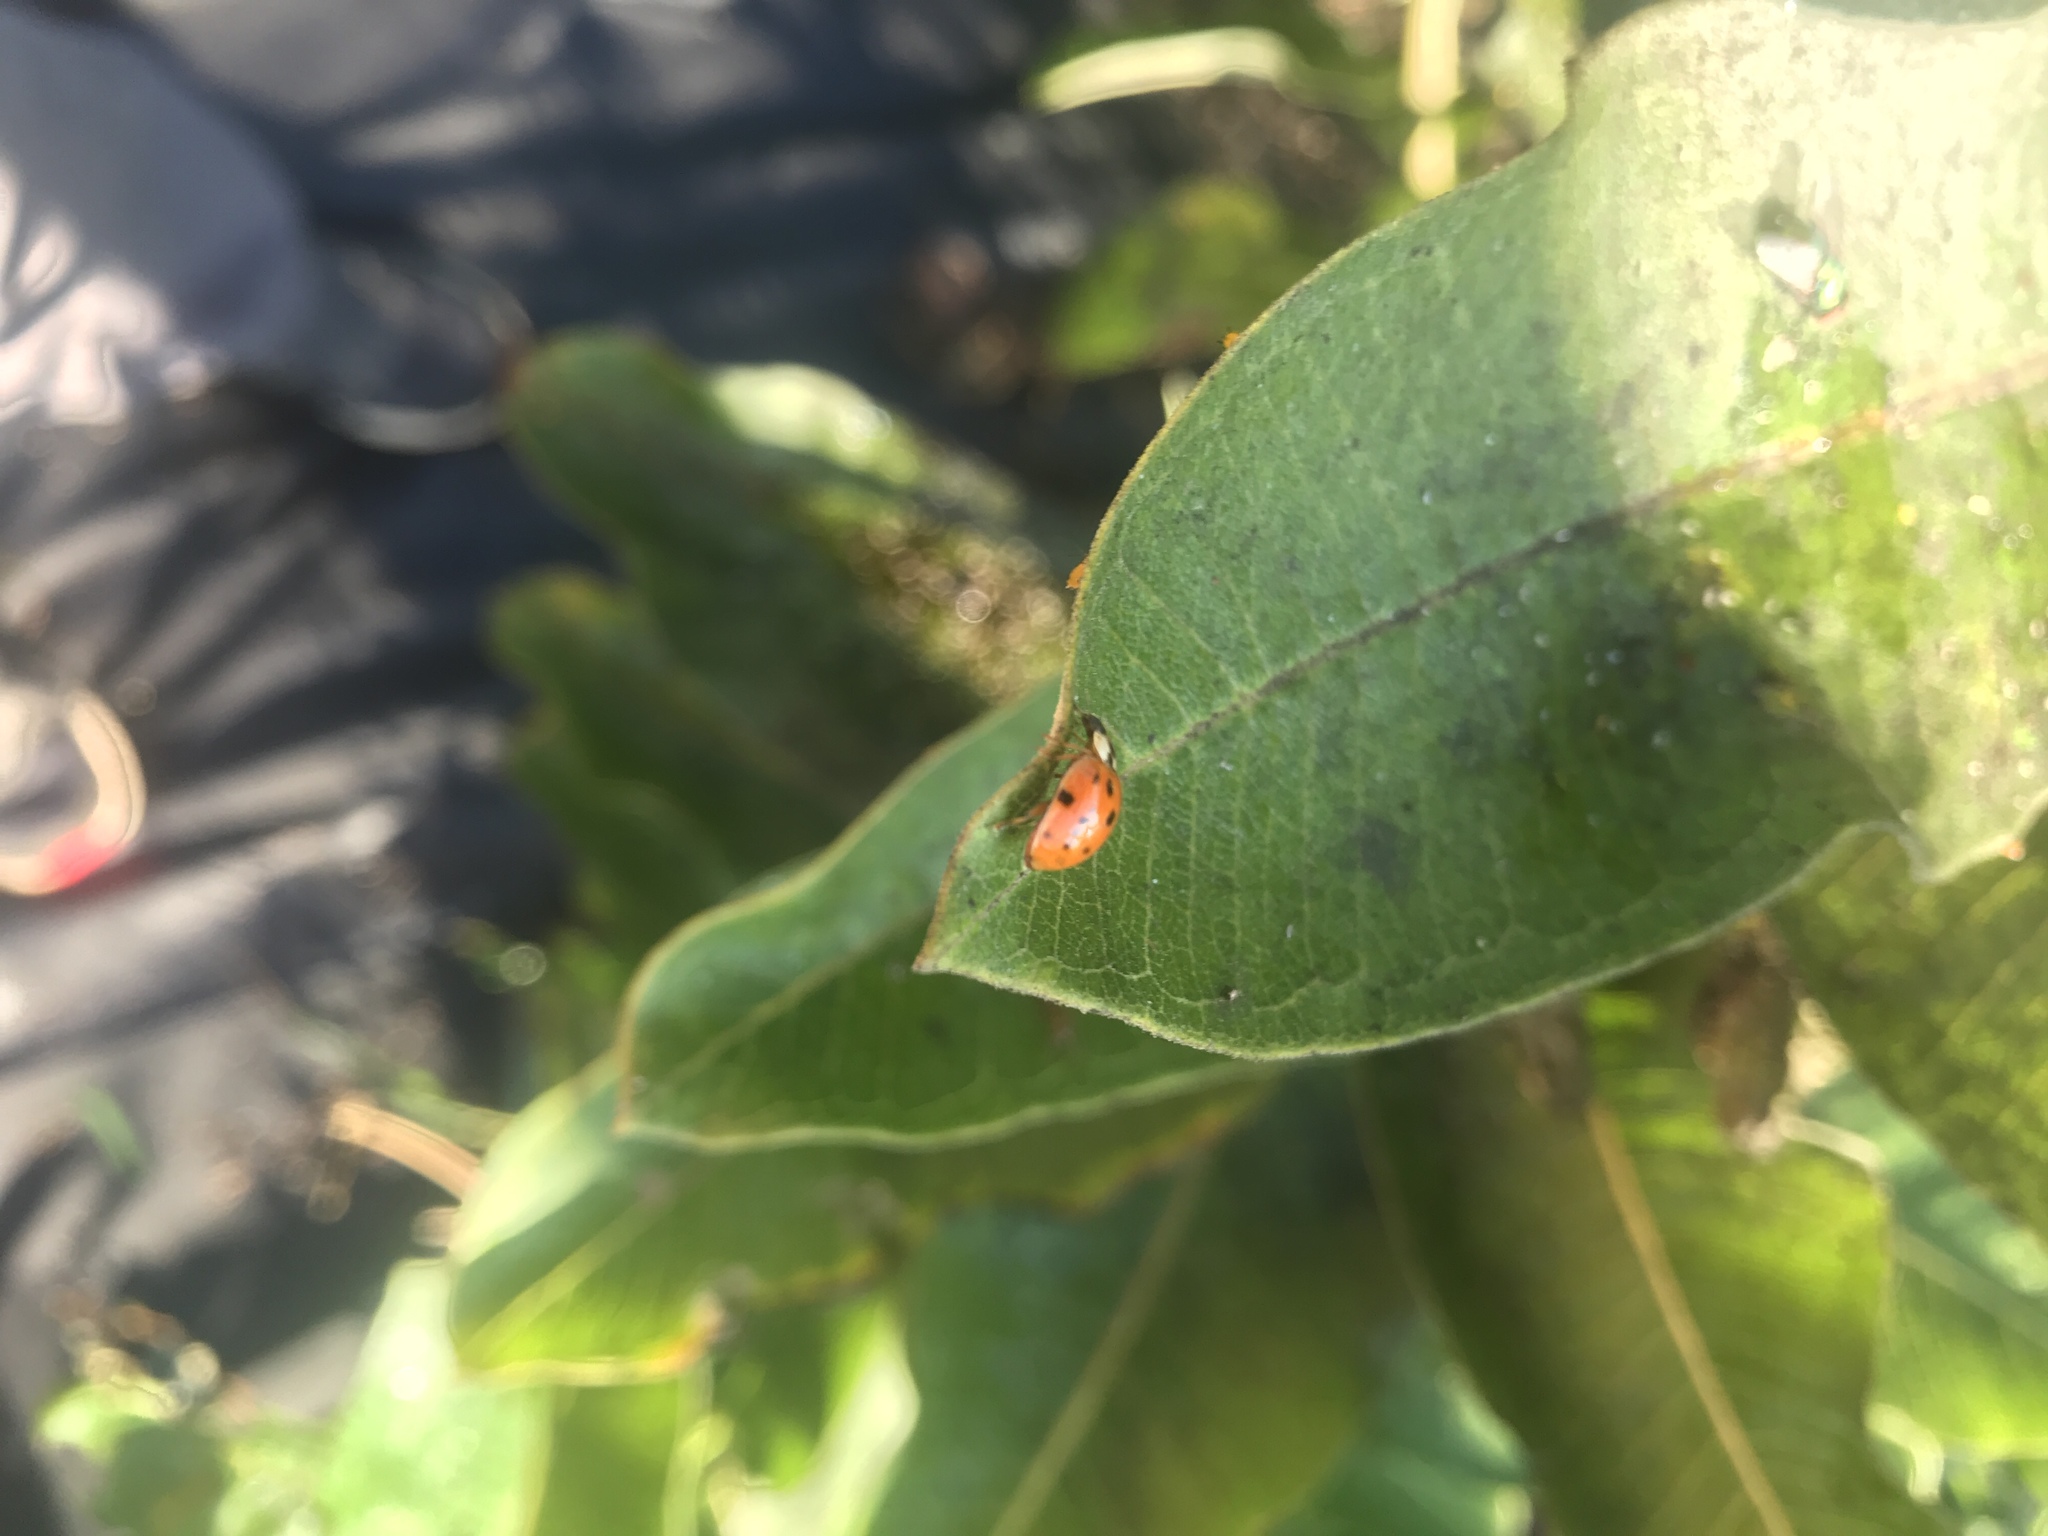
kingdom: Animalia
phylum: Arthropoda
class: Insecta
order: Coleoptera
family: Coccinellidae
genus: Harmonia
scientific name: Harmonia axyridis
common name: Harlequin ladybird
